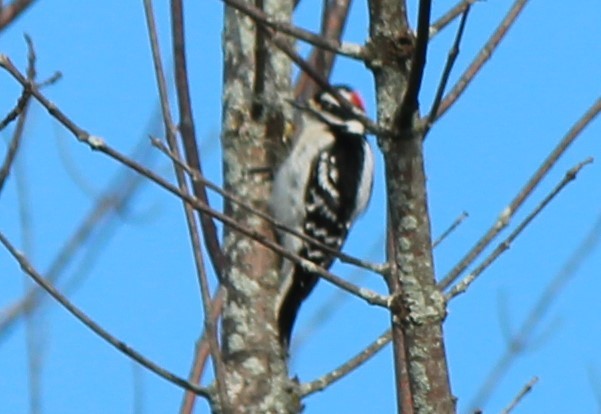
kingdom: Animalia
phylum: Chordata
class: Aves
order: Piciformes
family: Picidae
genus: Dryobates
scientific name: Dryobates pubescens
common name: Downy woodpecker
